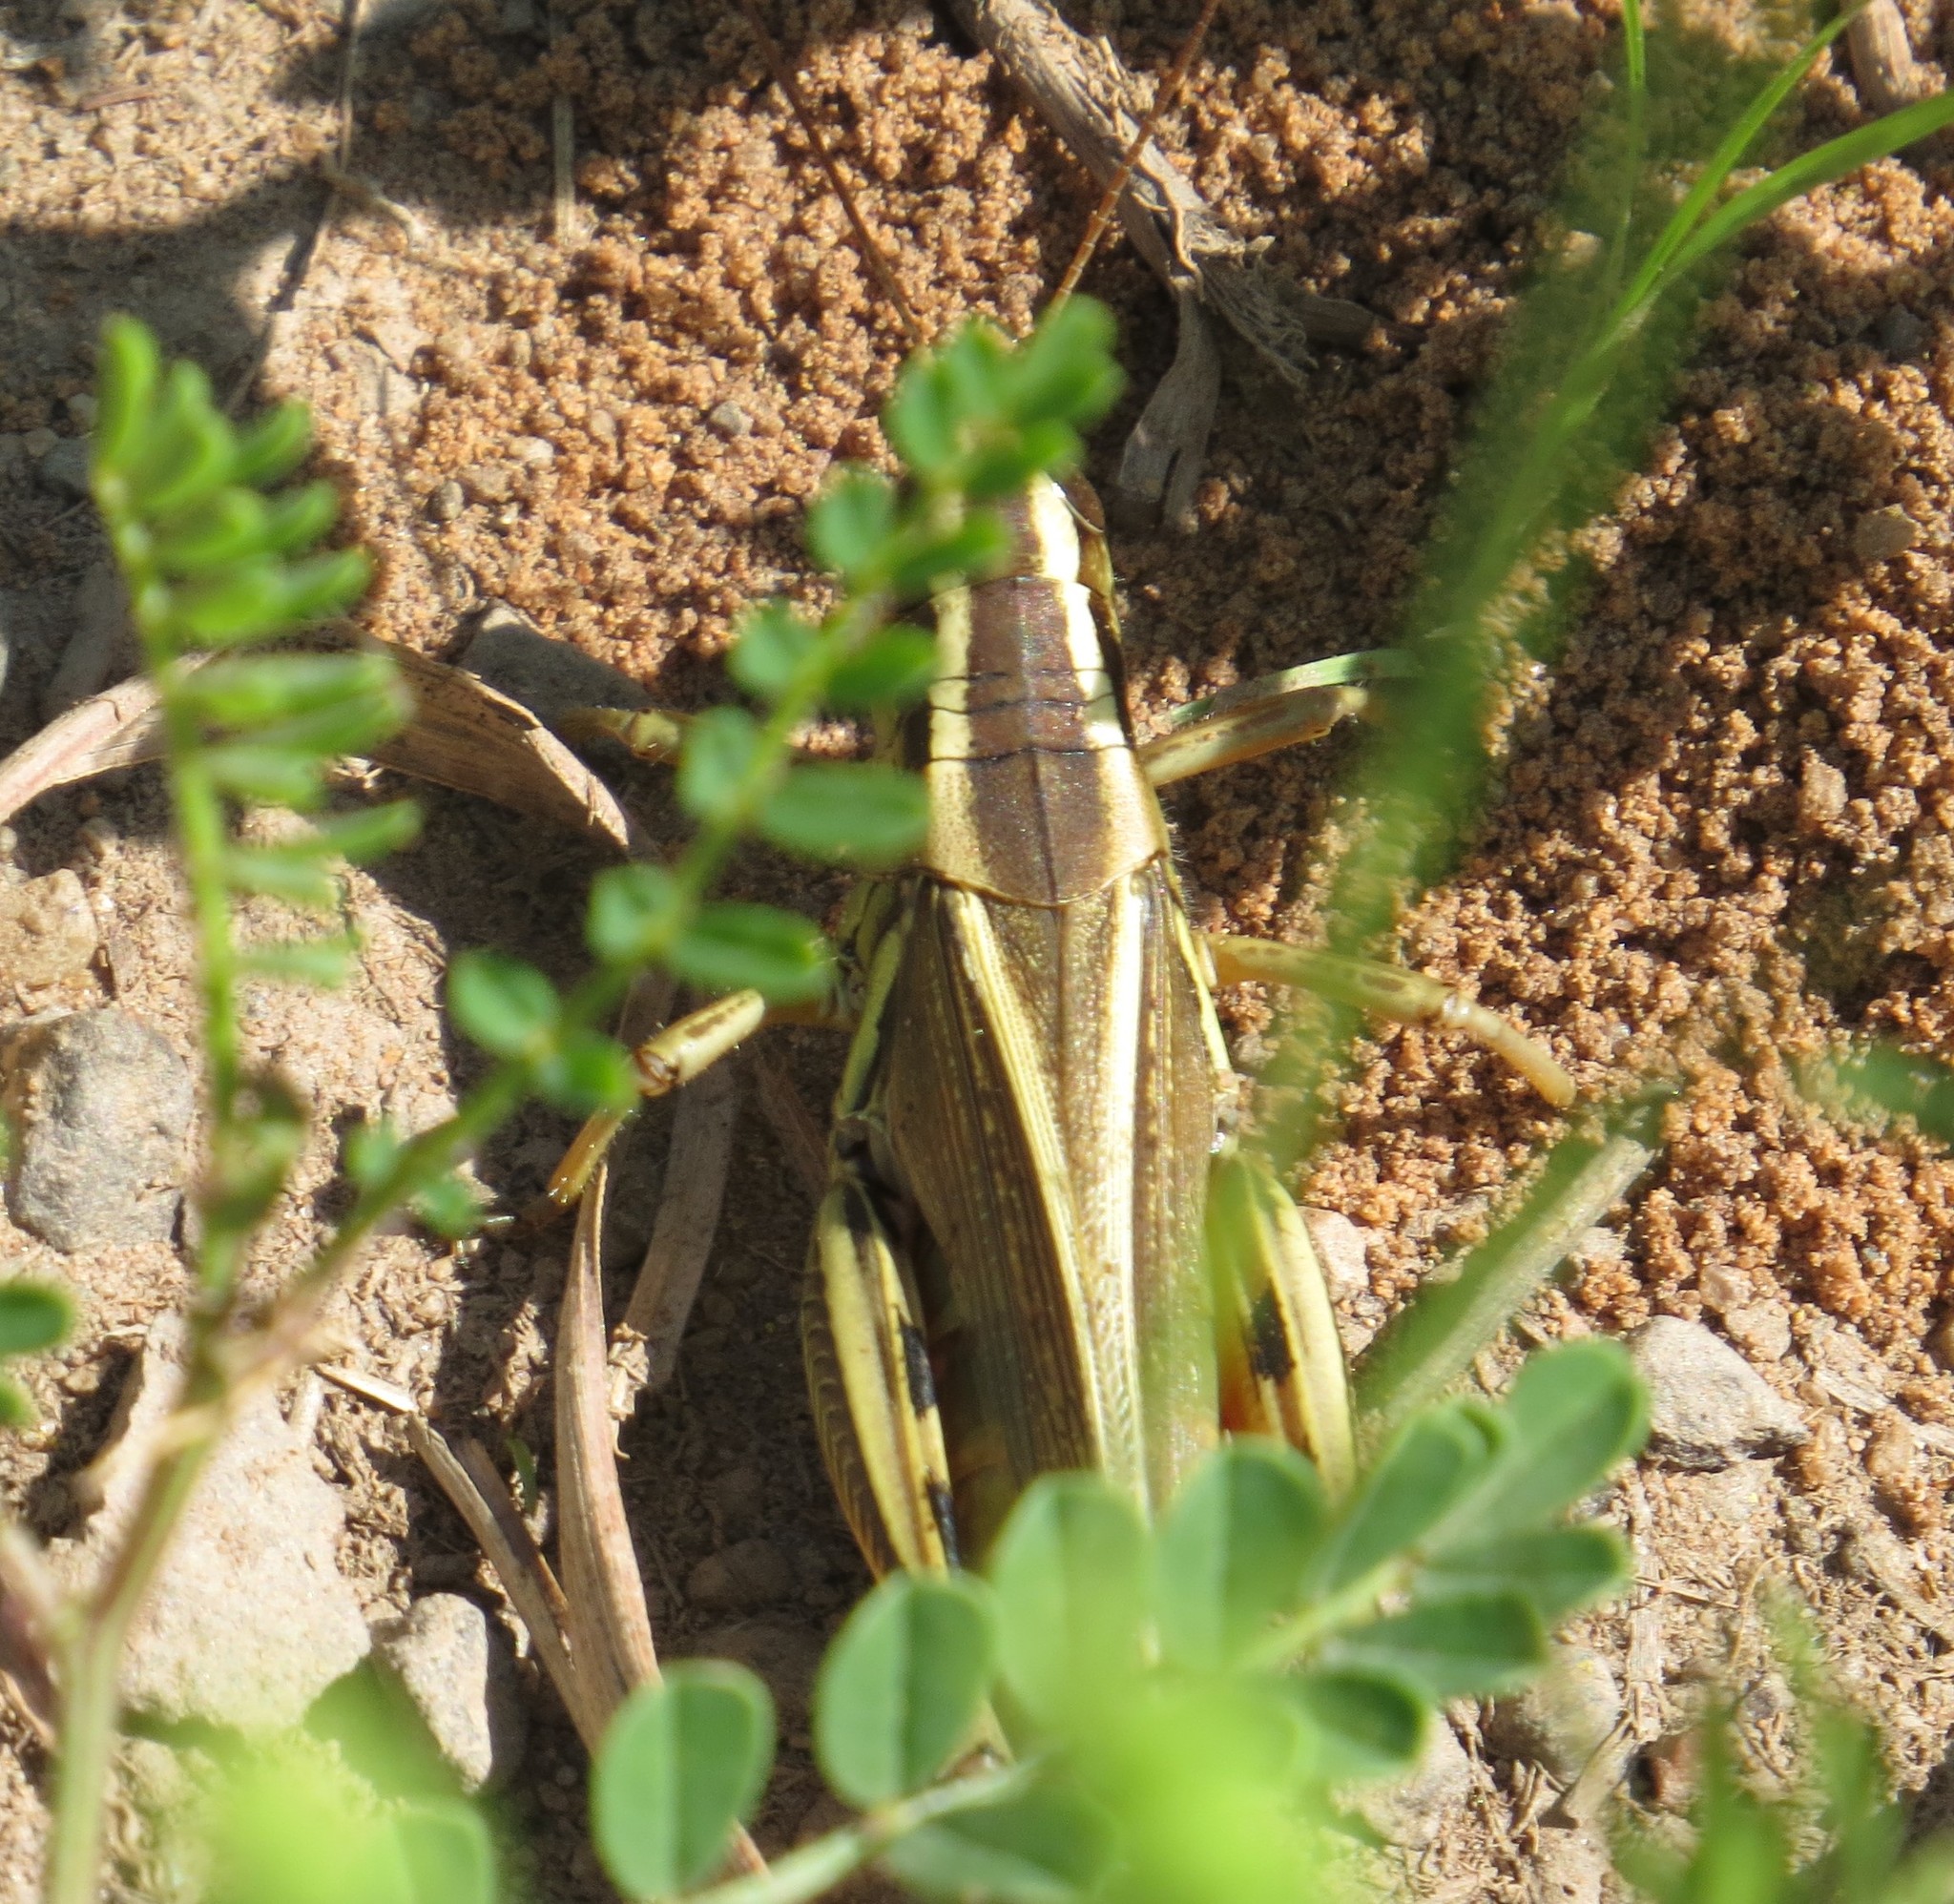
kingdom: Animalia
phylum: Arthropoda
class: Insecta
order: Orthoptera
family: Acrididae
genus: Melanoplus
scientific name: Melanoplus bivittatus
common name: Two-striped grasshopper
